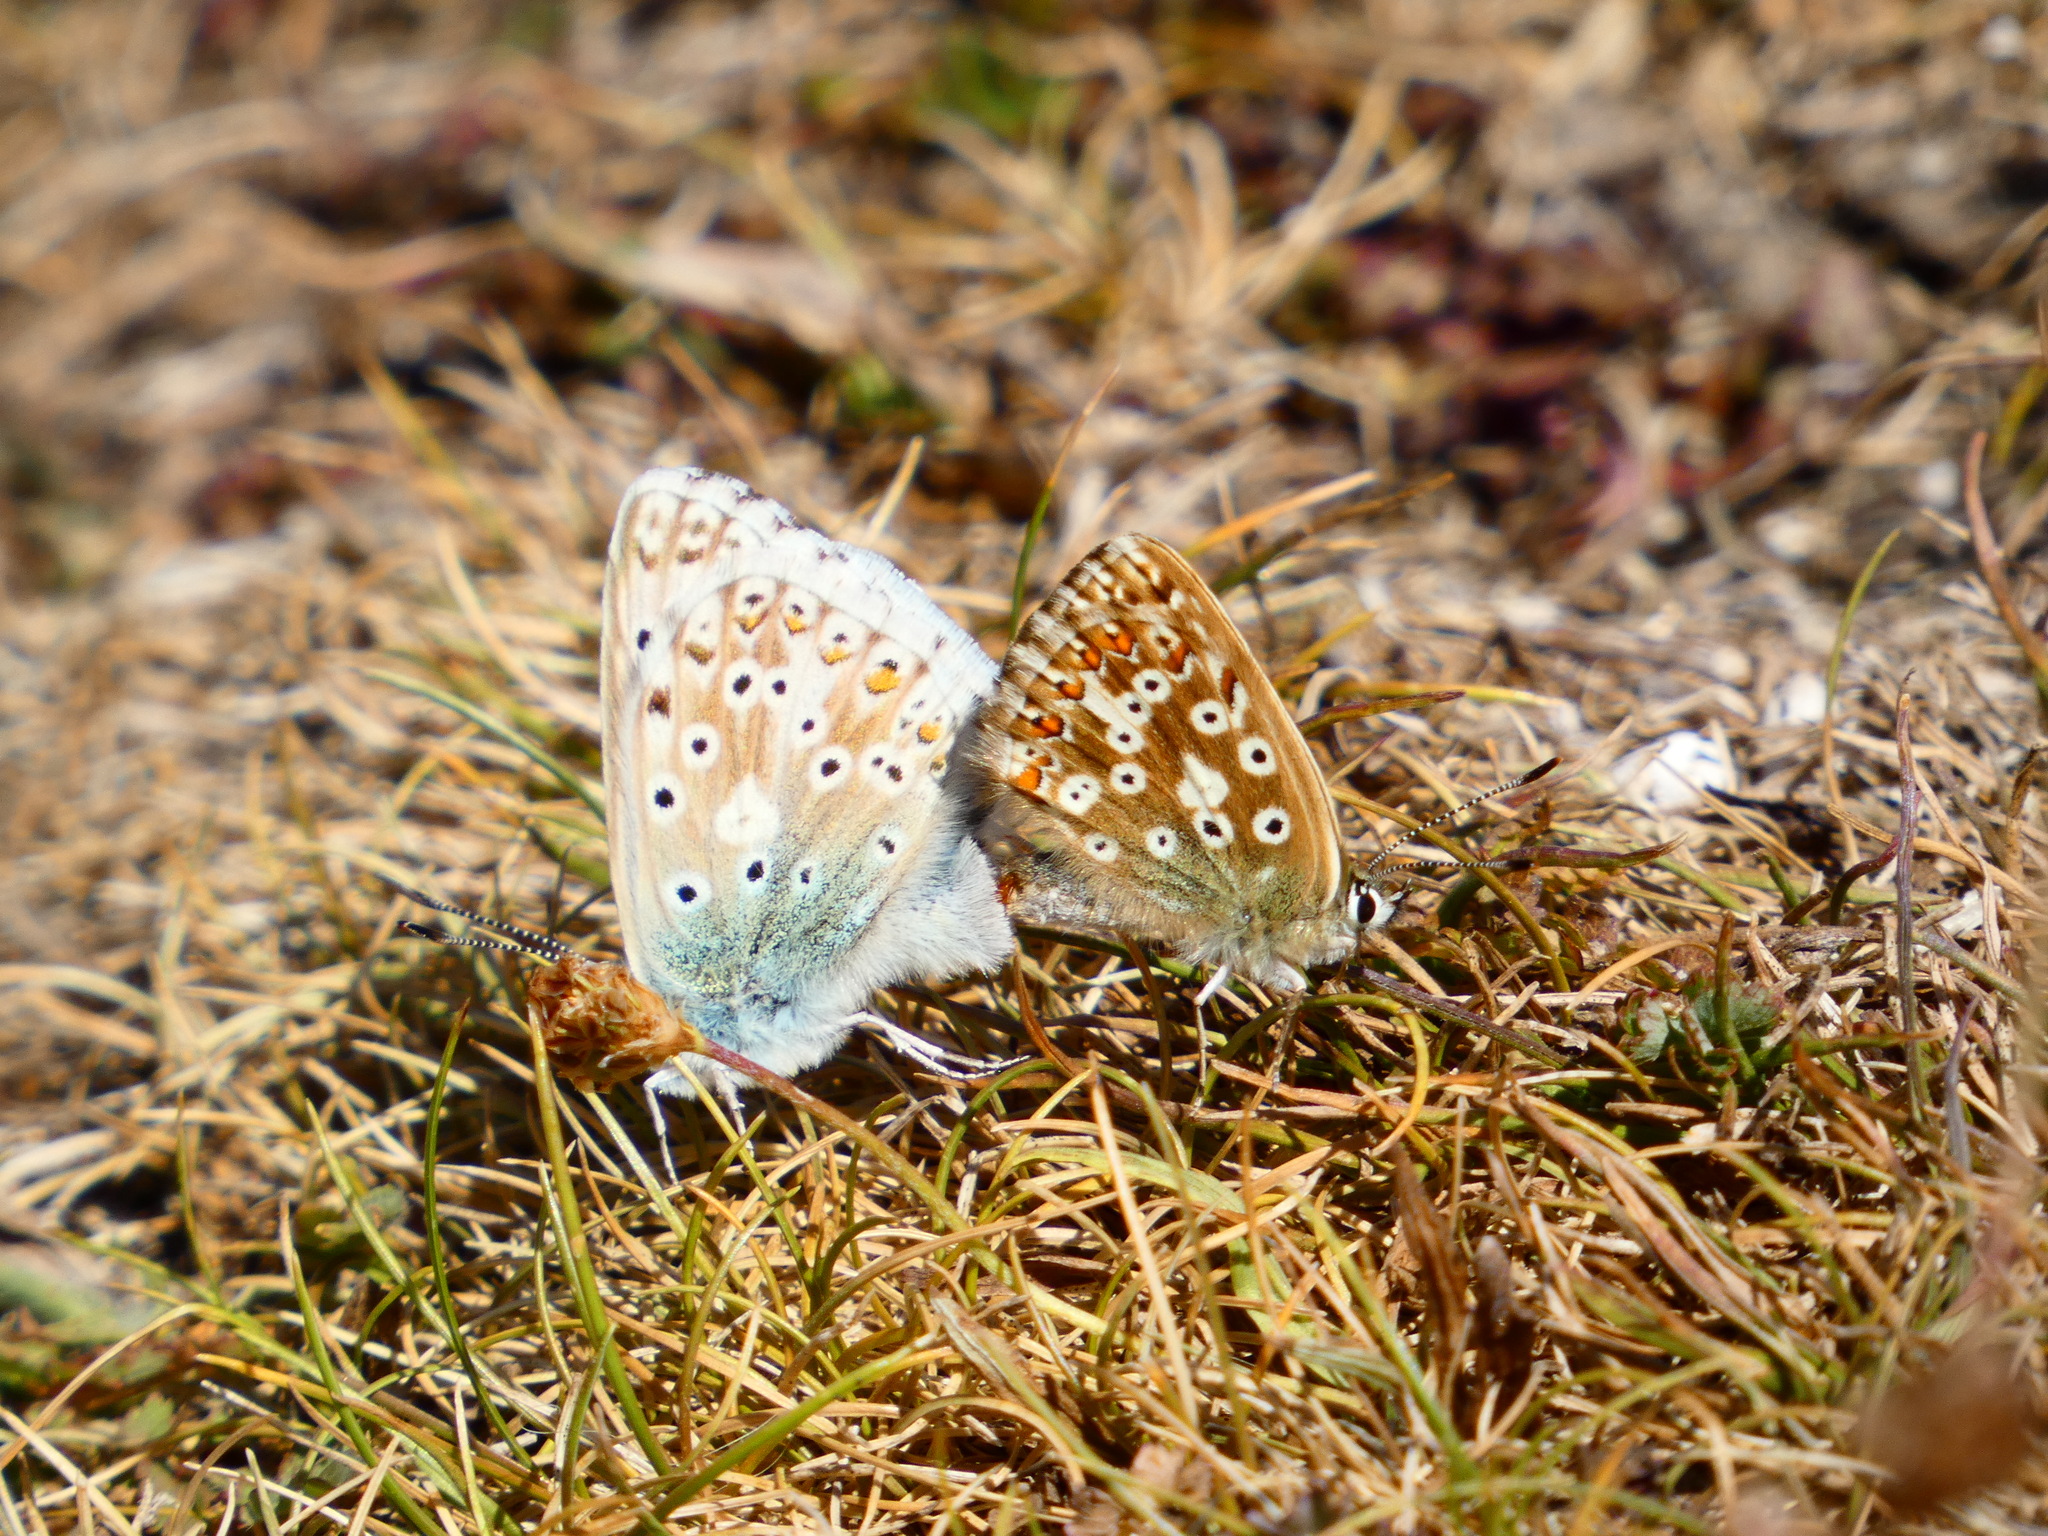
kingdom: Animalia
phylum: Arthropoda
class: Insecta
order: Lepidoptera
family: Lycaenidae
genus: Lysandra
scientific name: Lysandra coridon
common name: Chalkhill blue
